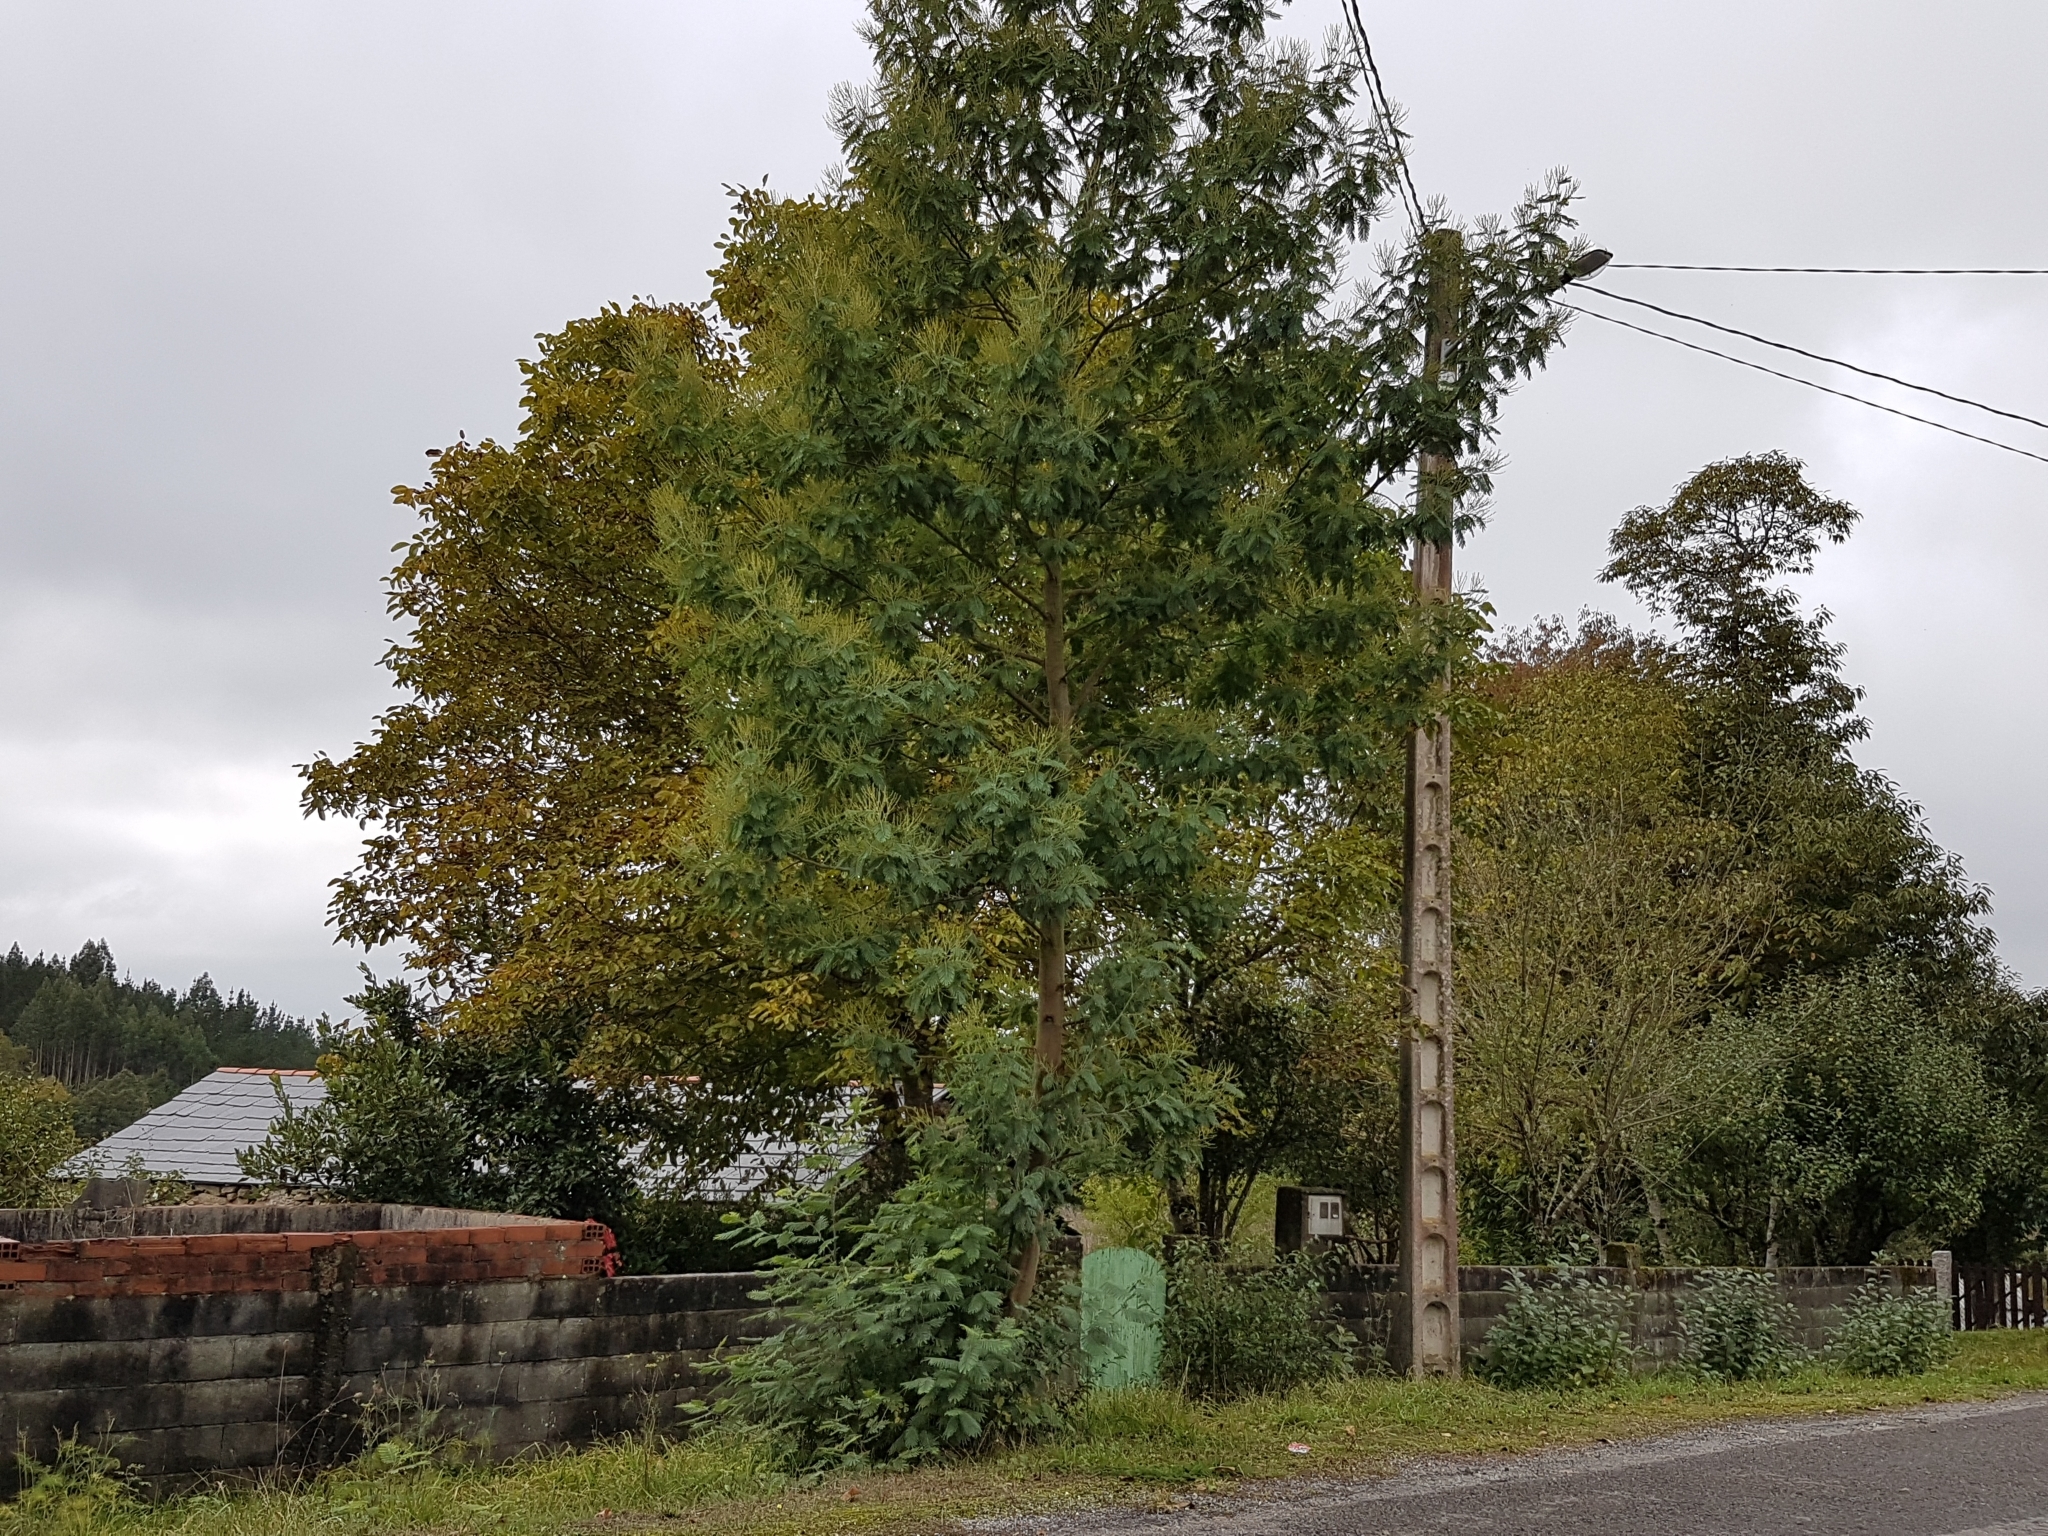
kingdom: Plantae
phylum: Tracheophyta
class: Magnoliopsida
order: Fabales
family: Fabaceae
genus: Acacia
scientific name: Acacia dealbata
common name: Silver wattle
